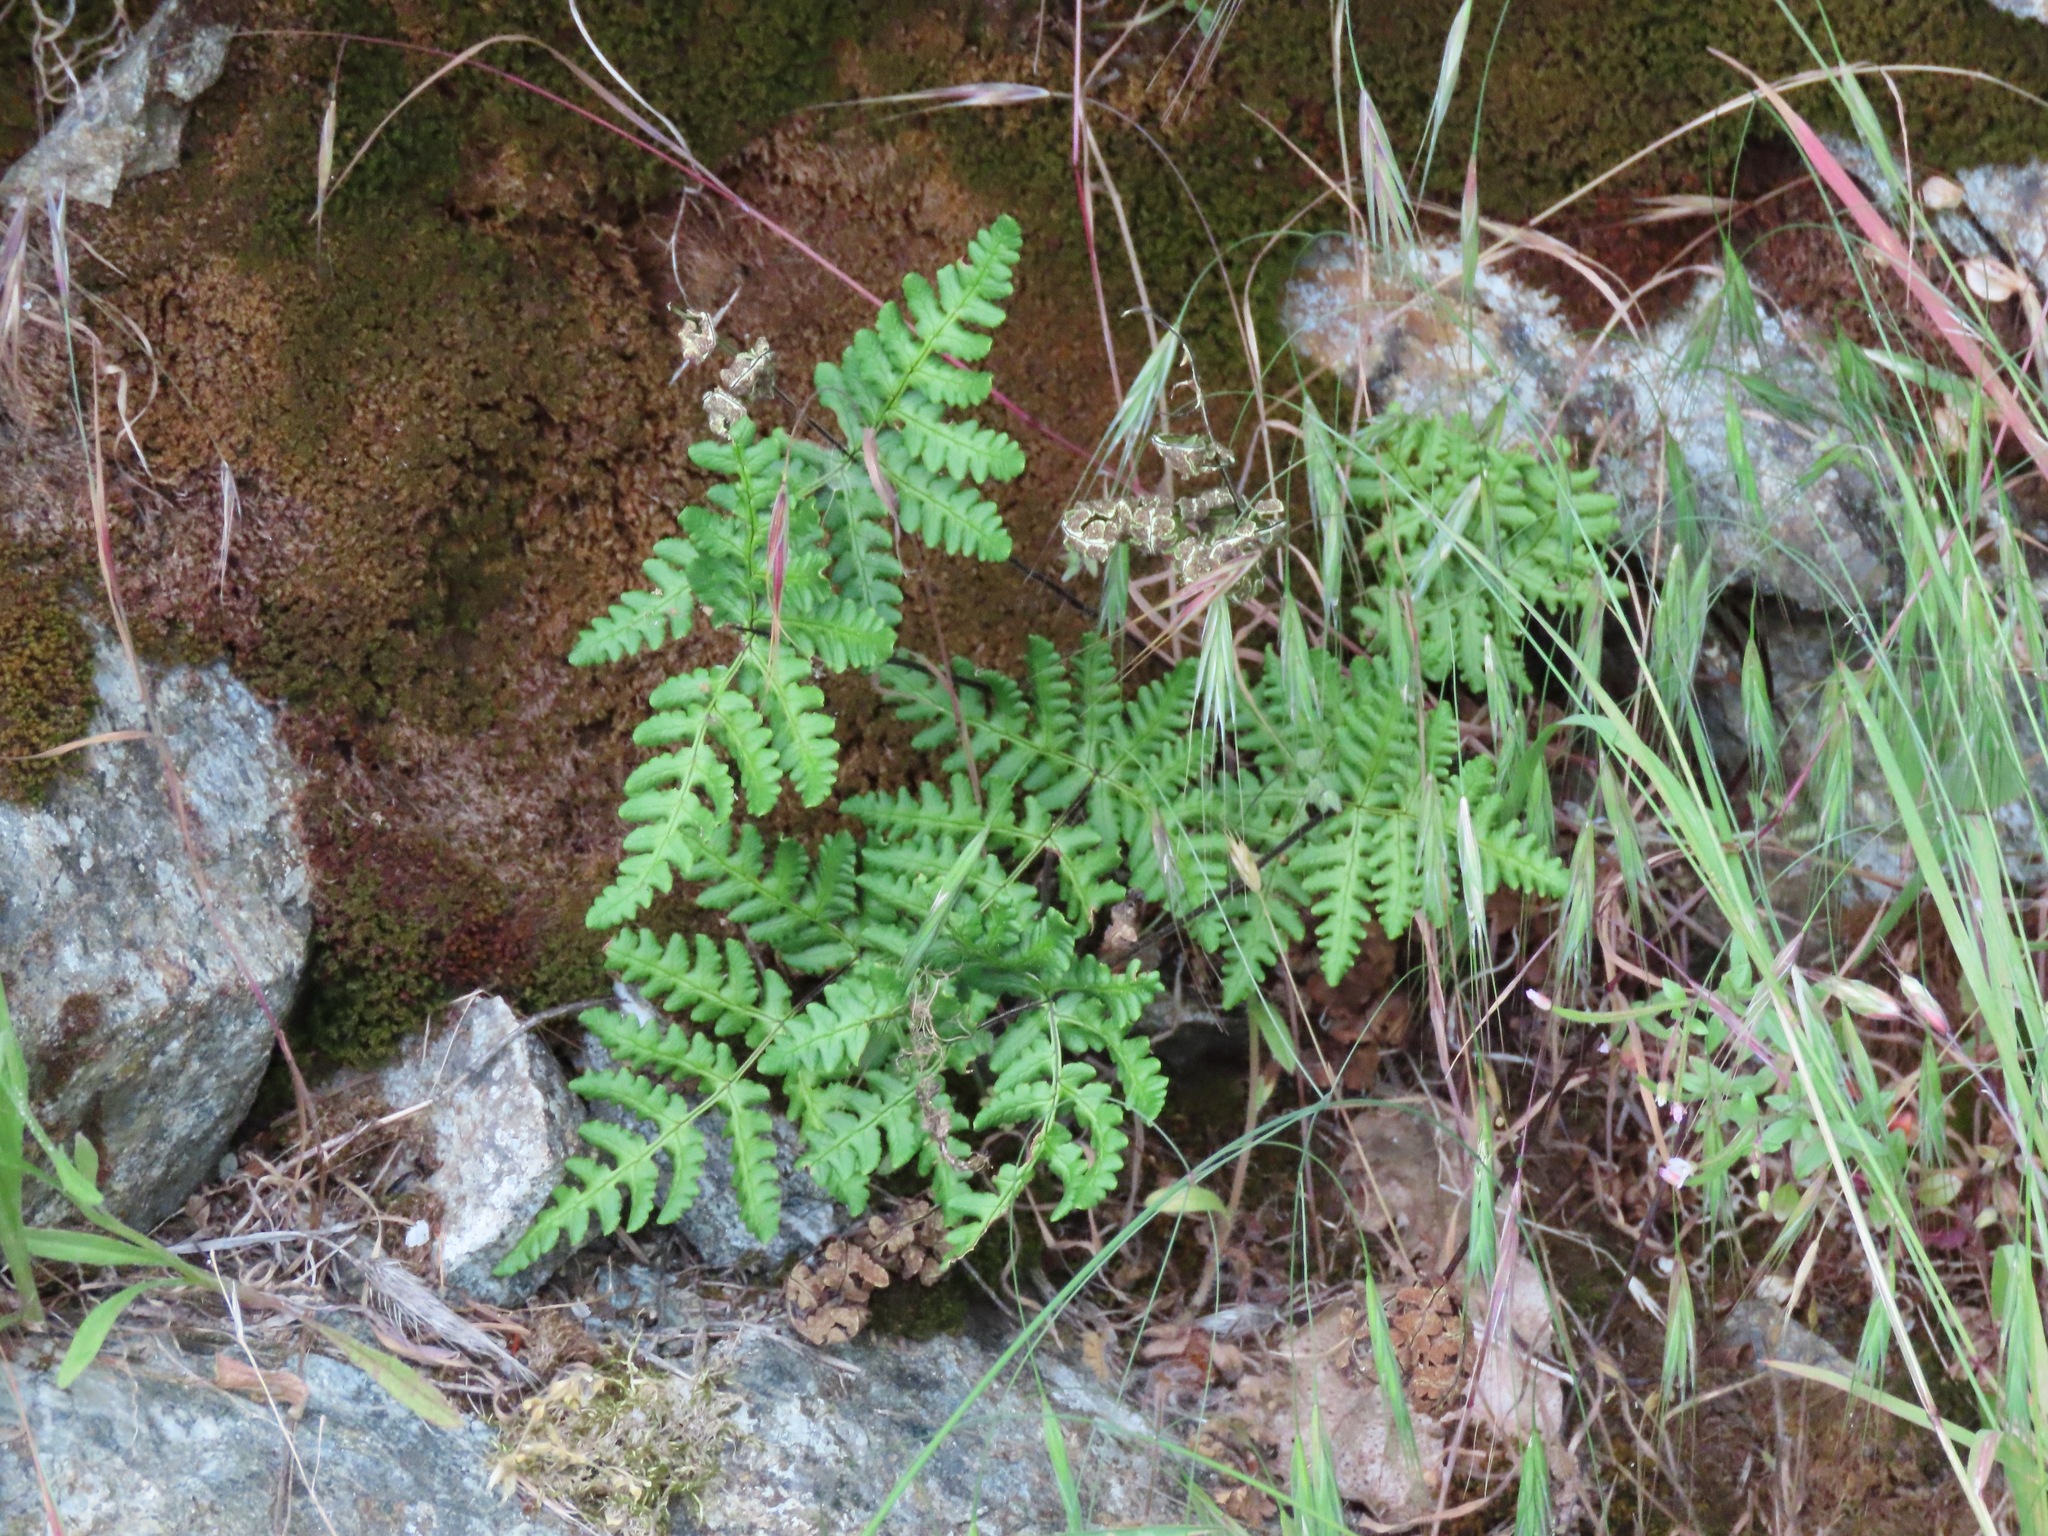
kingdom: Plantae
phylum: Tracheophyta
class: Polypodiopsida
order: Polypodiales
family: Pteridaceae
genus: Pentagramma
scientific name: Pentagramma triangularis
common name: Gold fern
